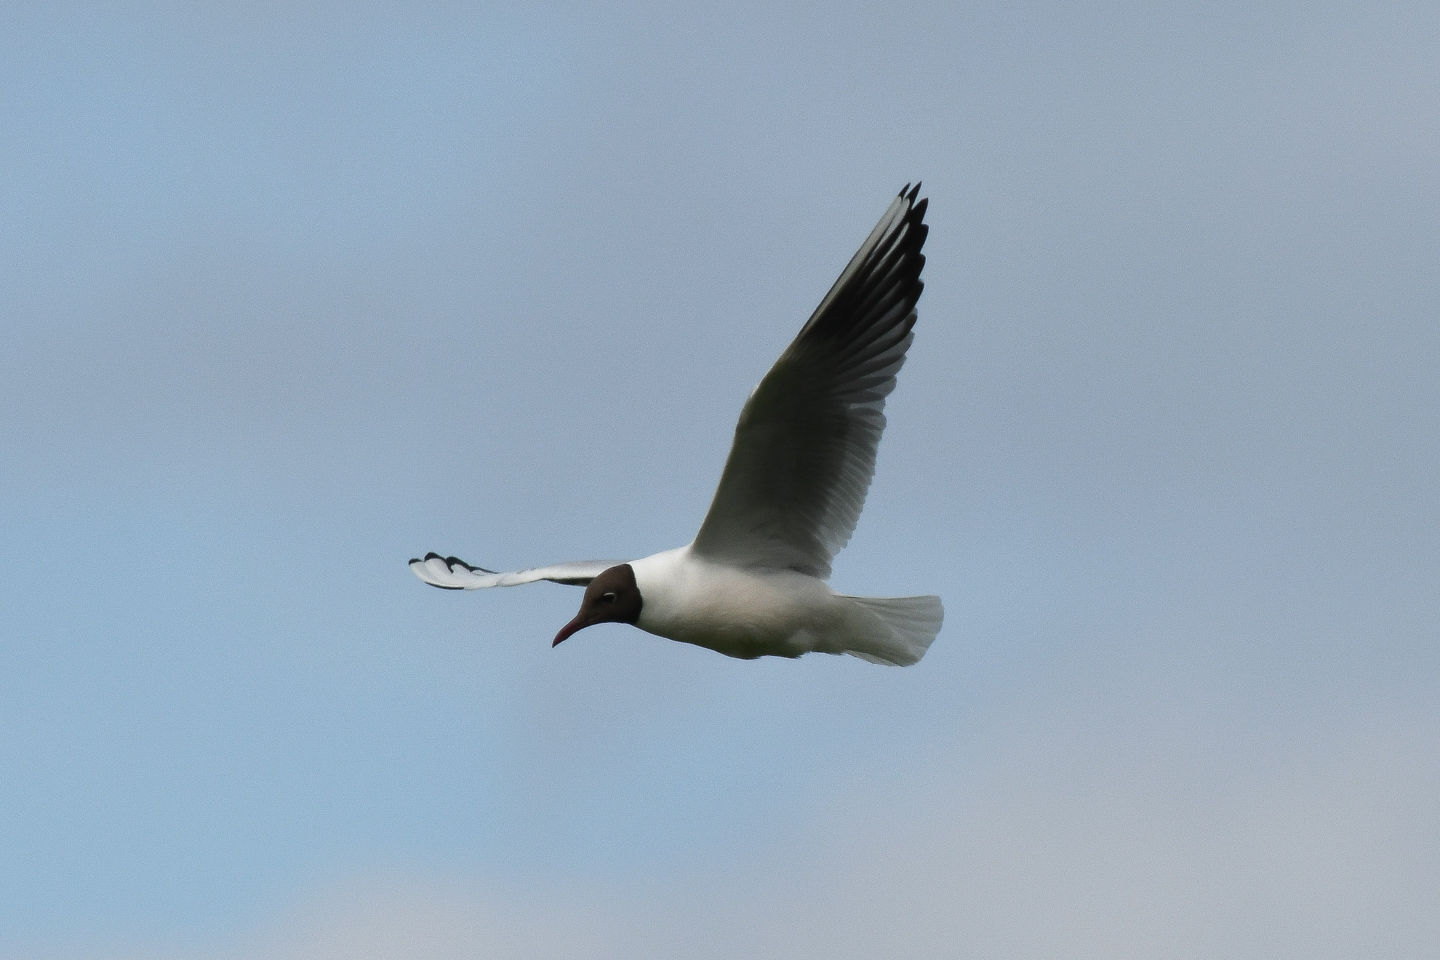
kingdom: Animalia
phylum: Chordata
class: Aves
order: Charadriiformes
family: Laridae
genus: Chroicocephalus
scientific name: Chroicocephalus ridibundus
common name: Black-headed gull
